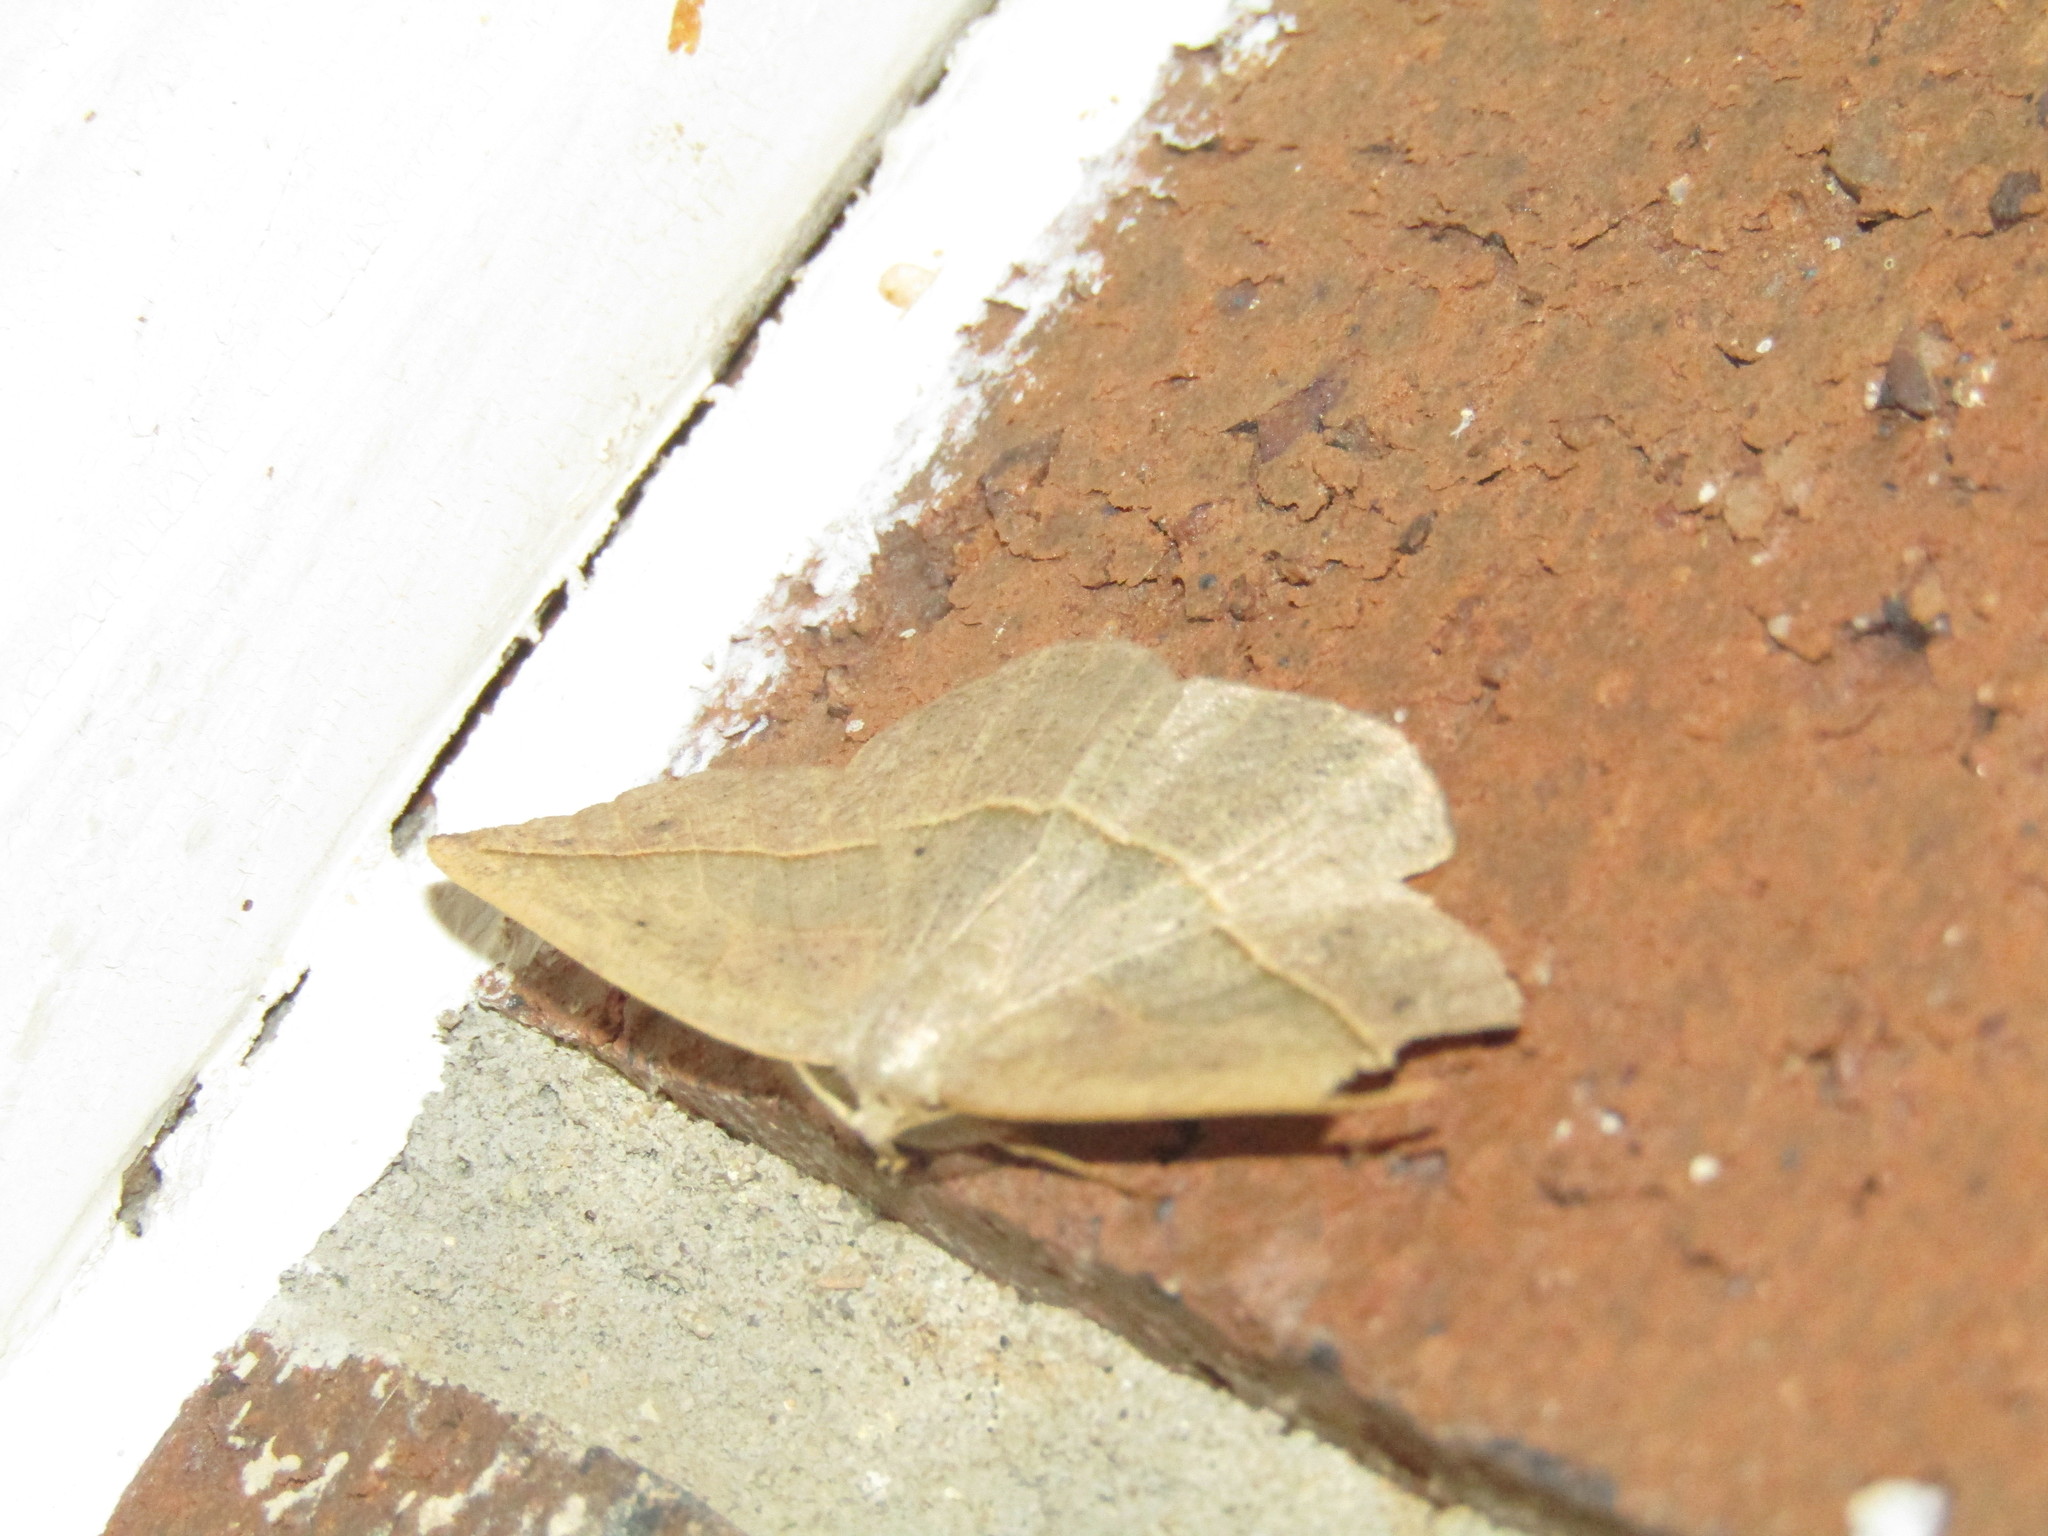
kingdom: Animalia
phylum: Arthropoda
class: Insecta
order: Lepidoptera
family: Geometridae
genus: Eusarca
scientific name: Eusarca confusaria
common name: Confused eusarca
